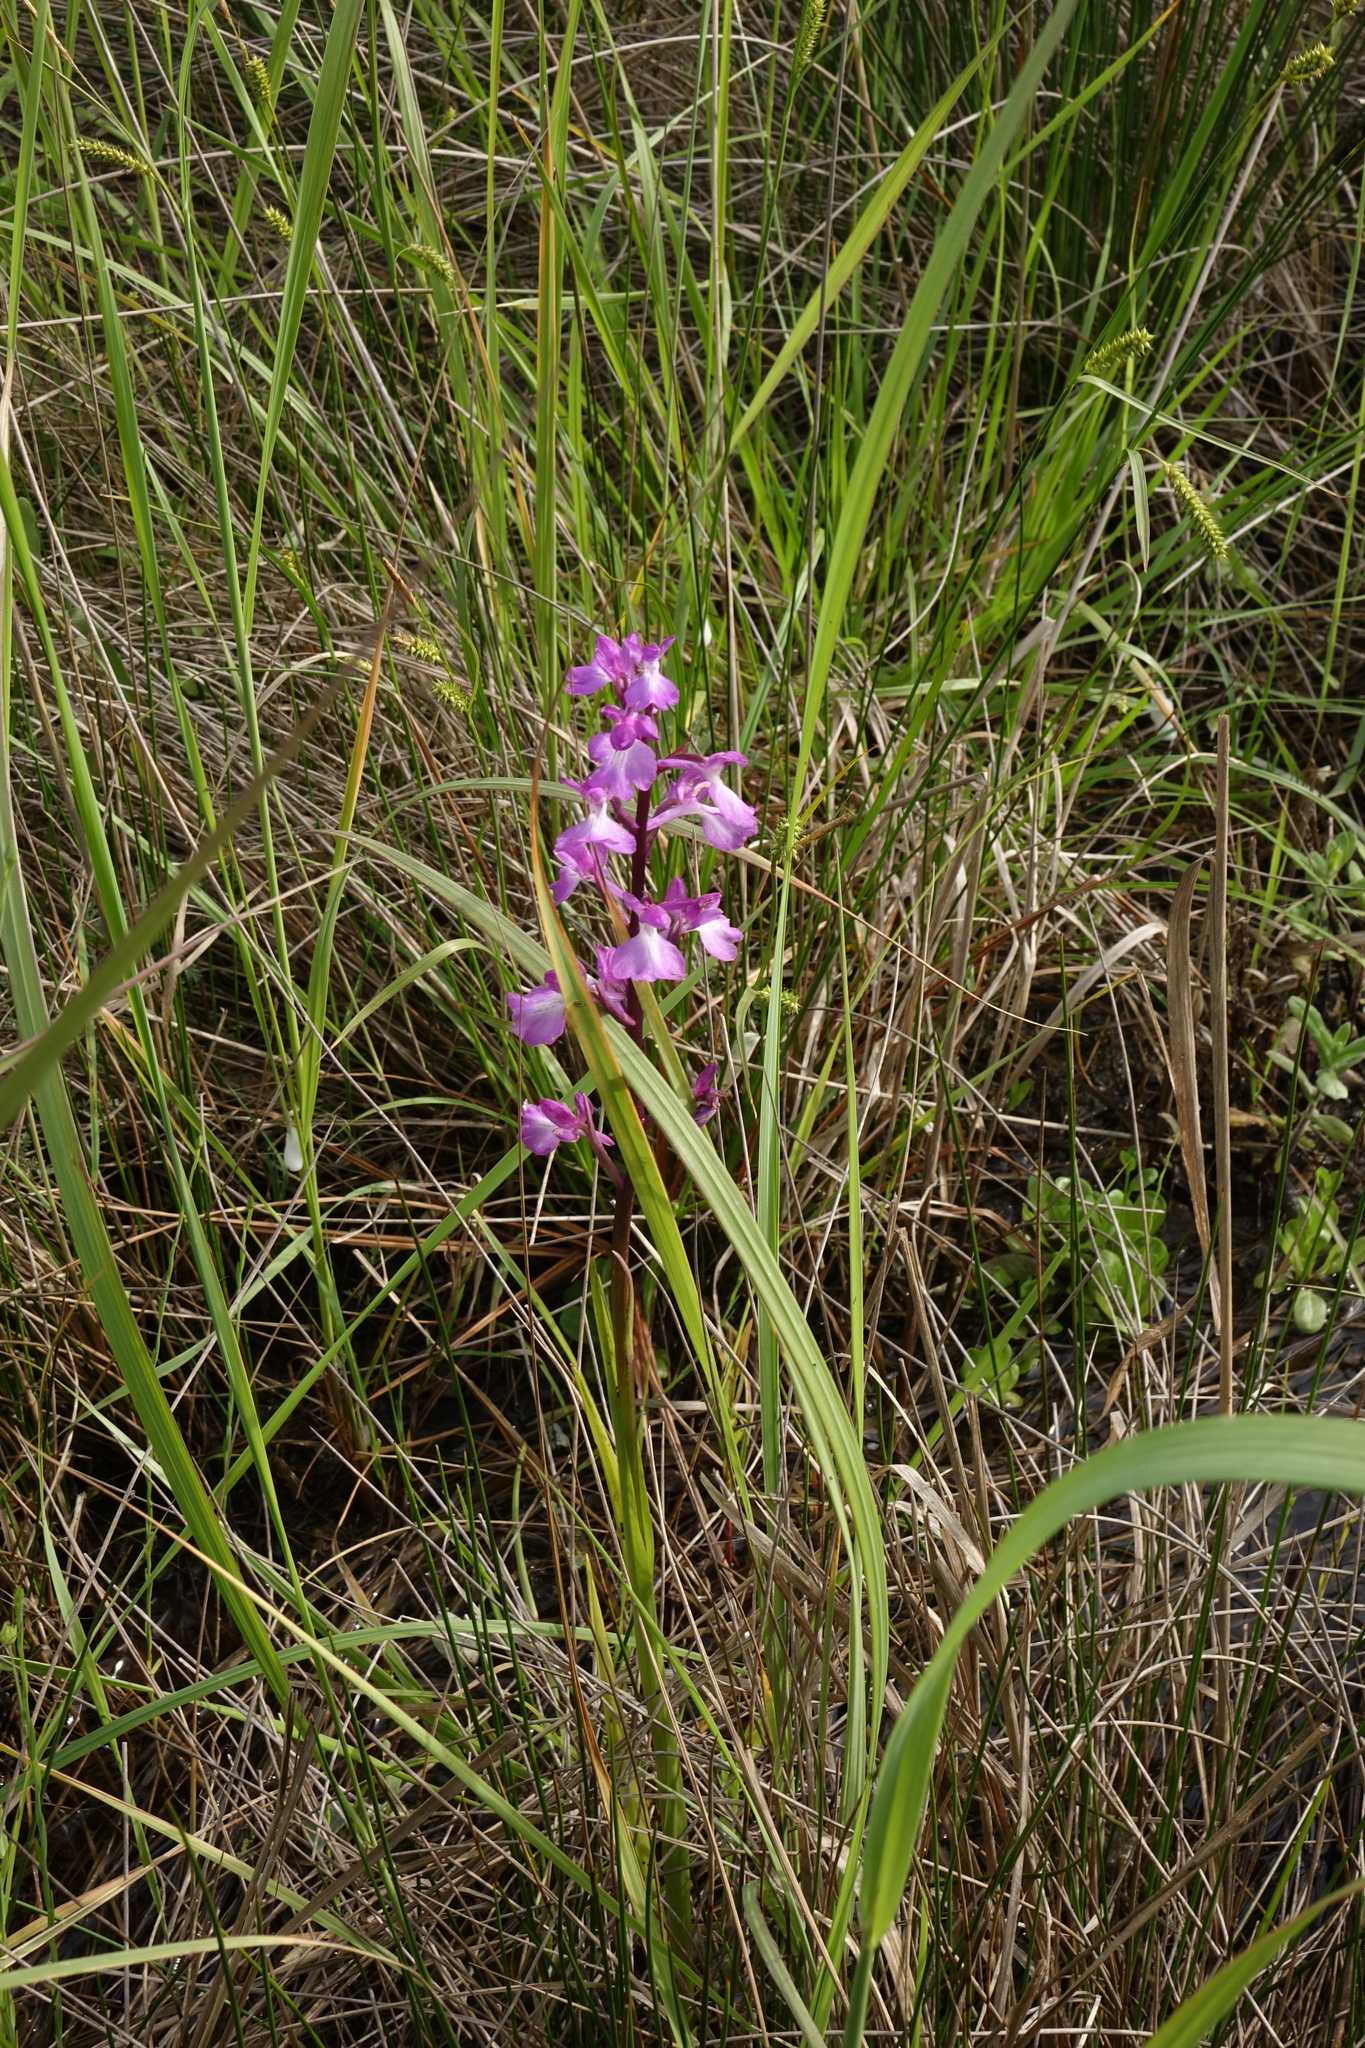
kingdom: Plantae
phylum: Tracheophyta
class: Liliopsida
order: Asparagales
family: Orchidaceae
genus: Anacamptis
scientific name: Anacamptis palustris
